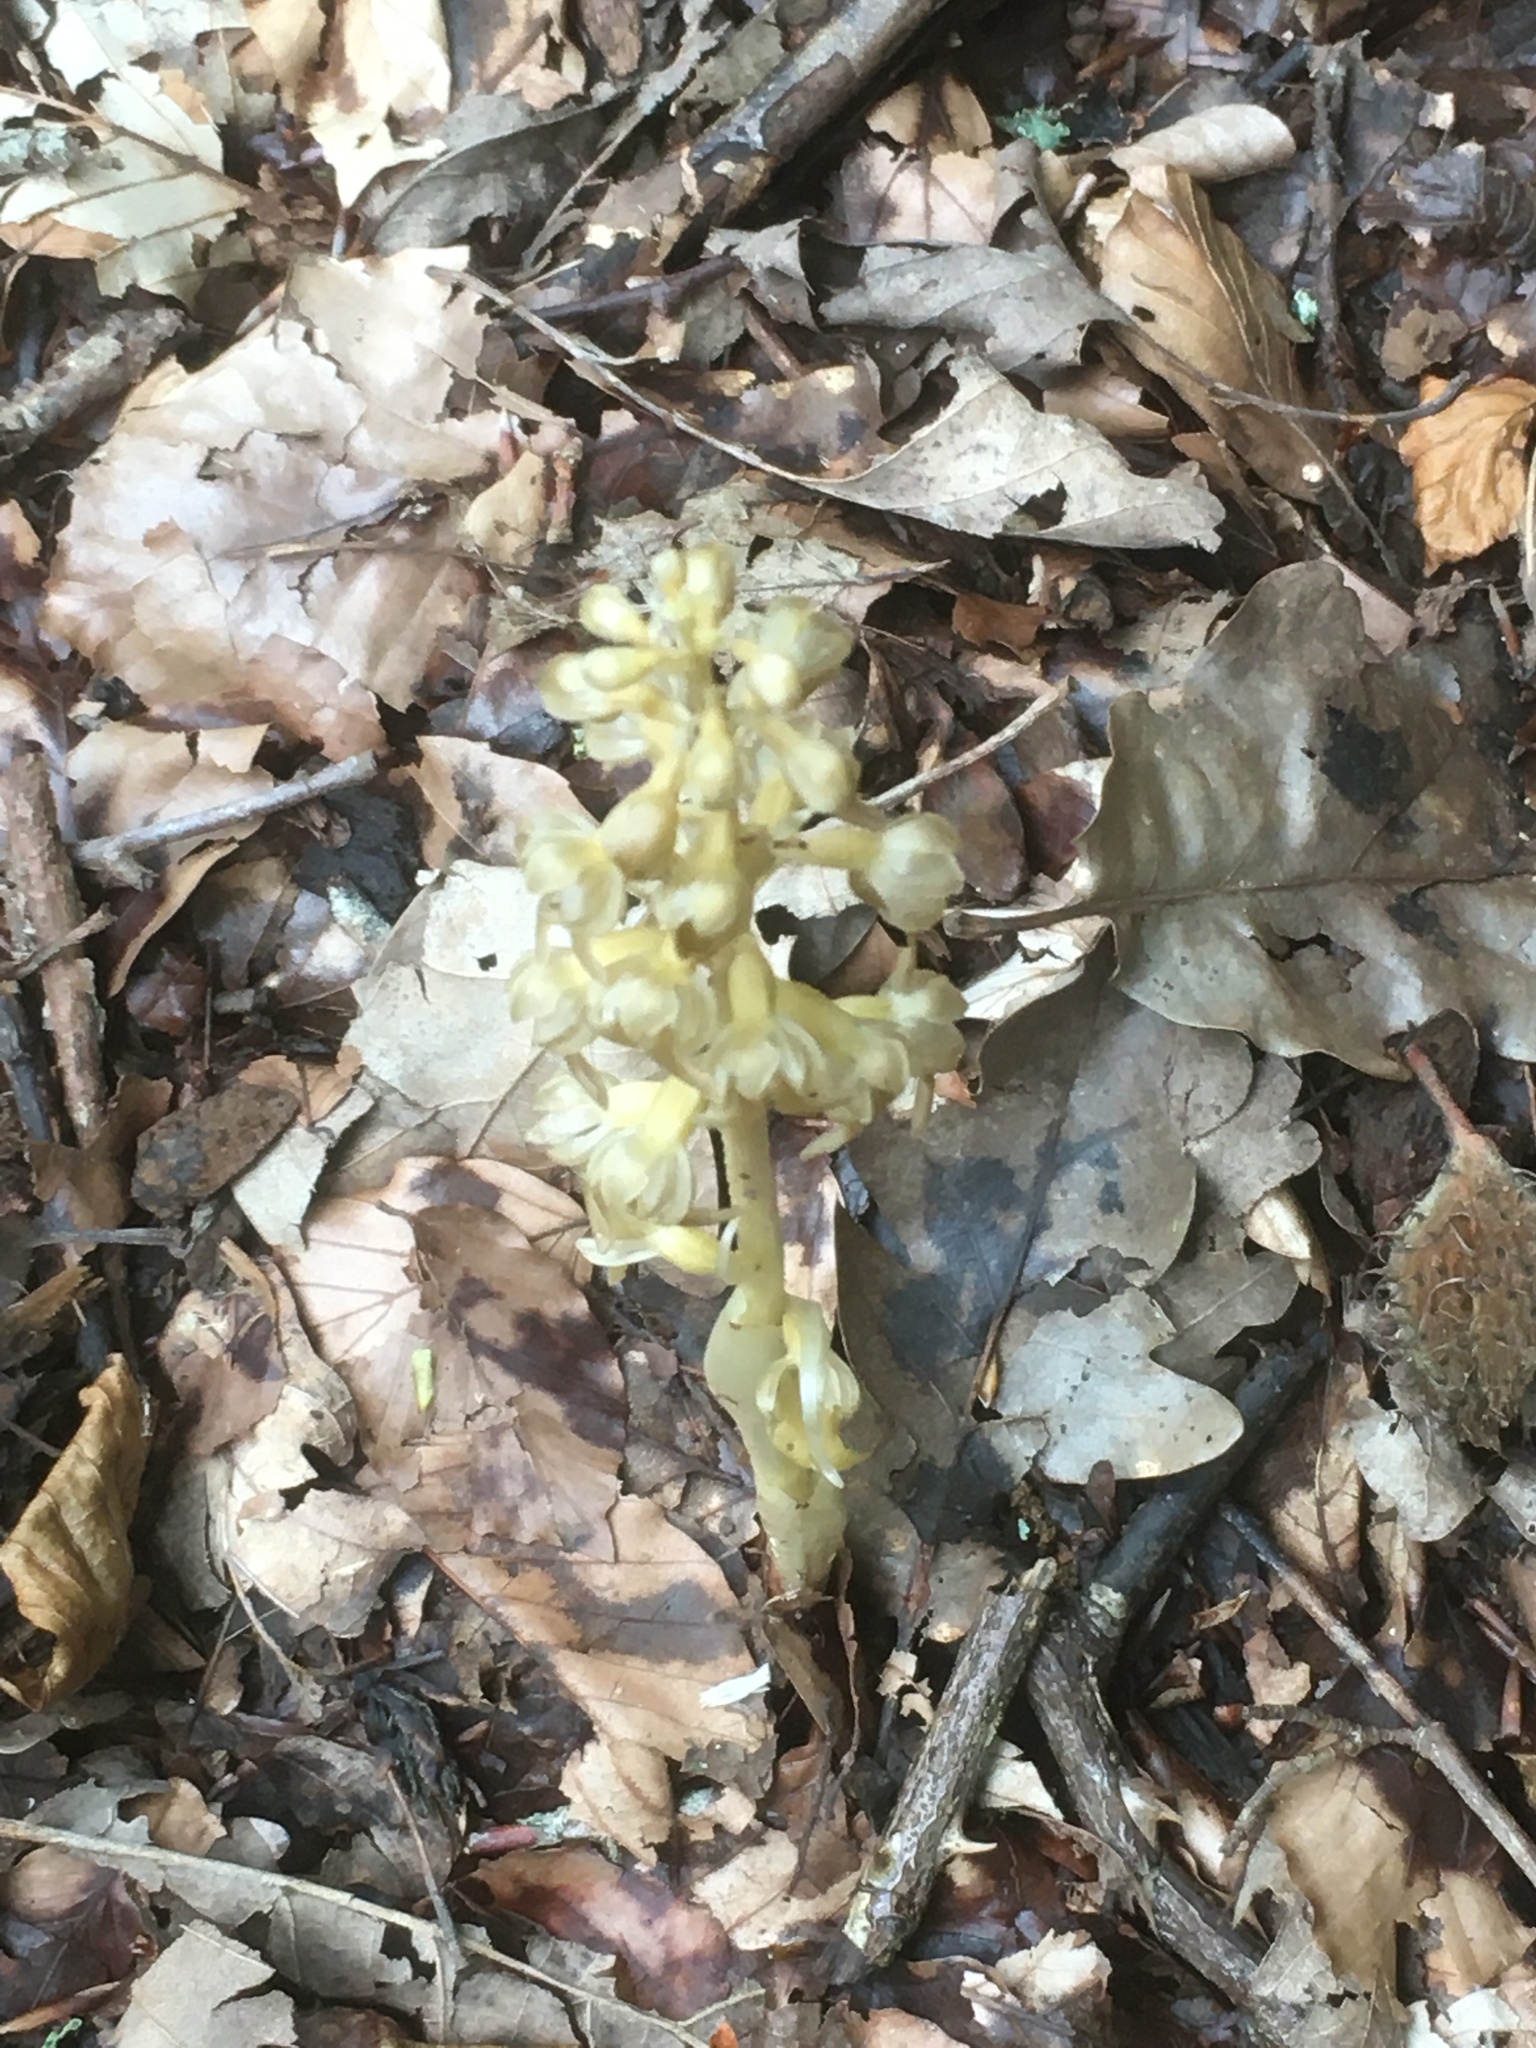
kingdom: Plantae
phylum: Tracheophyta
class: Liliopsida
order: Asparagales
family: Orchidaceae
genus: Neottia
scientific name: Neottia nidus-avis
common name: Bird's-nest orchid
